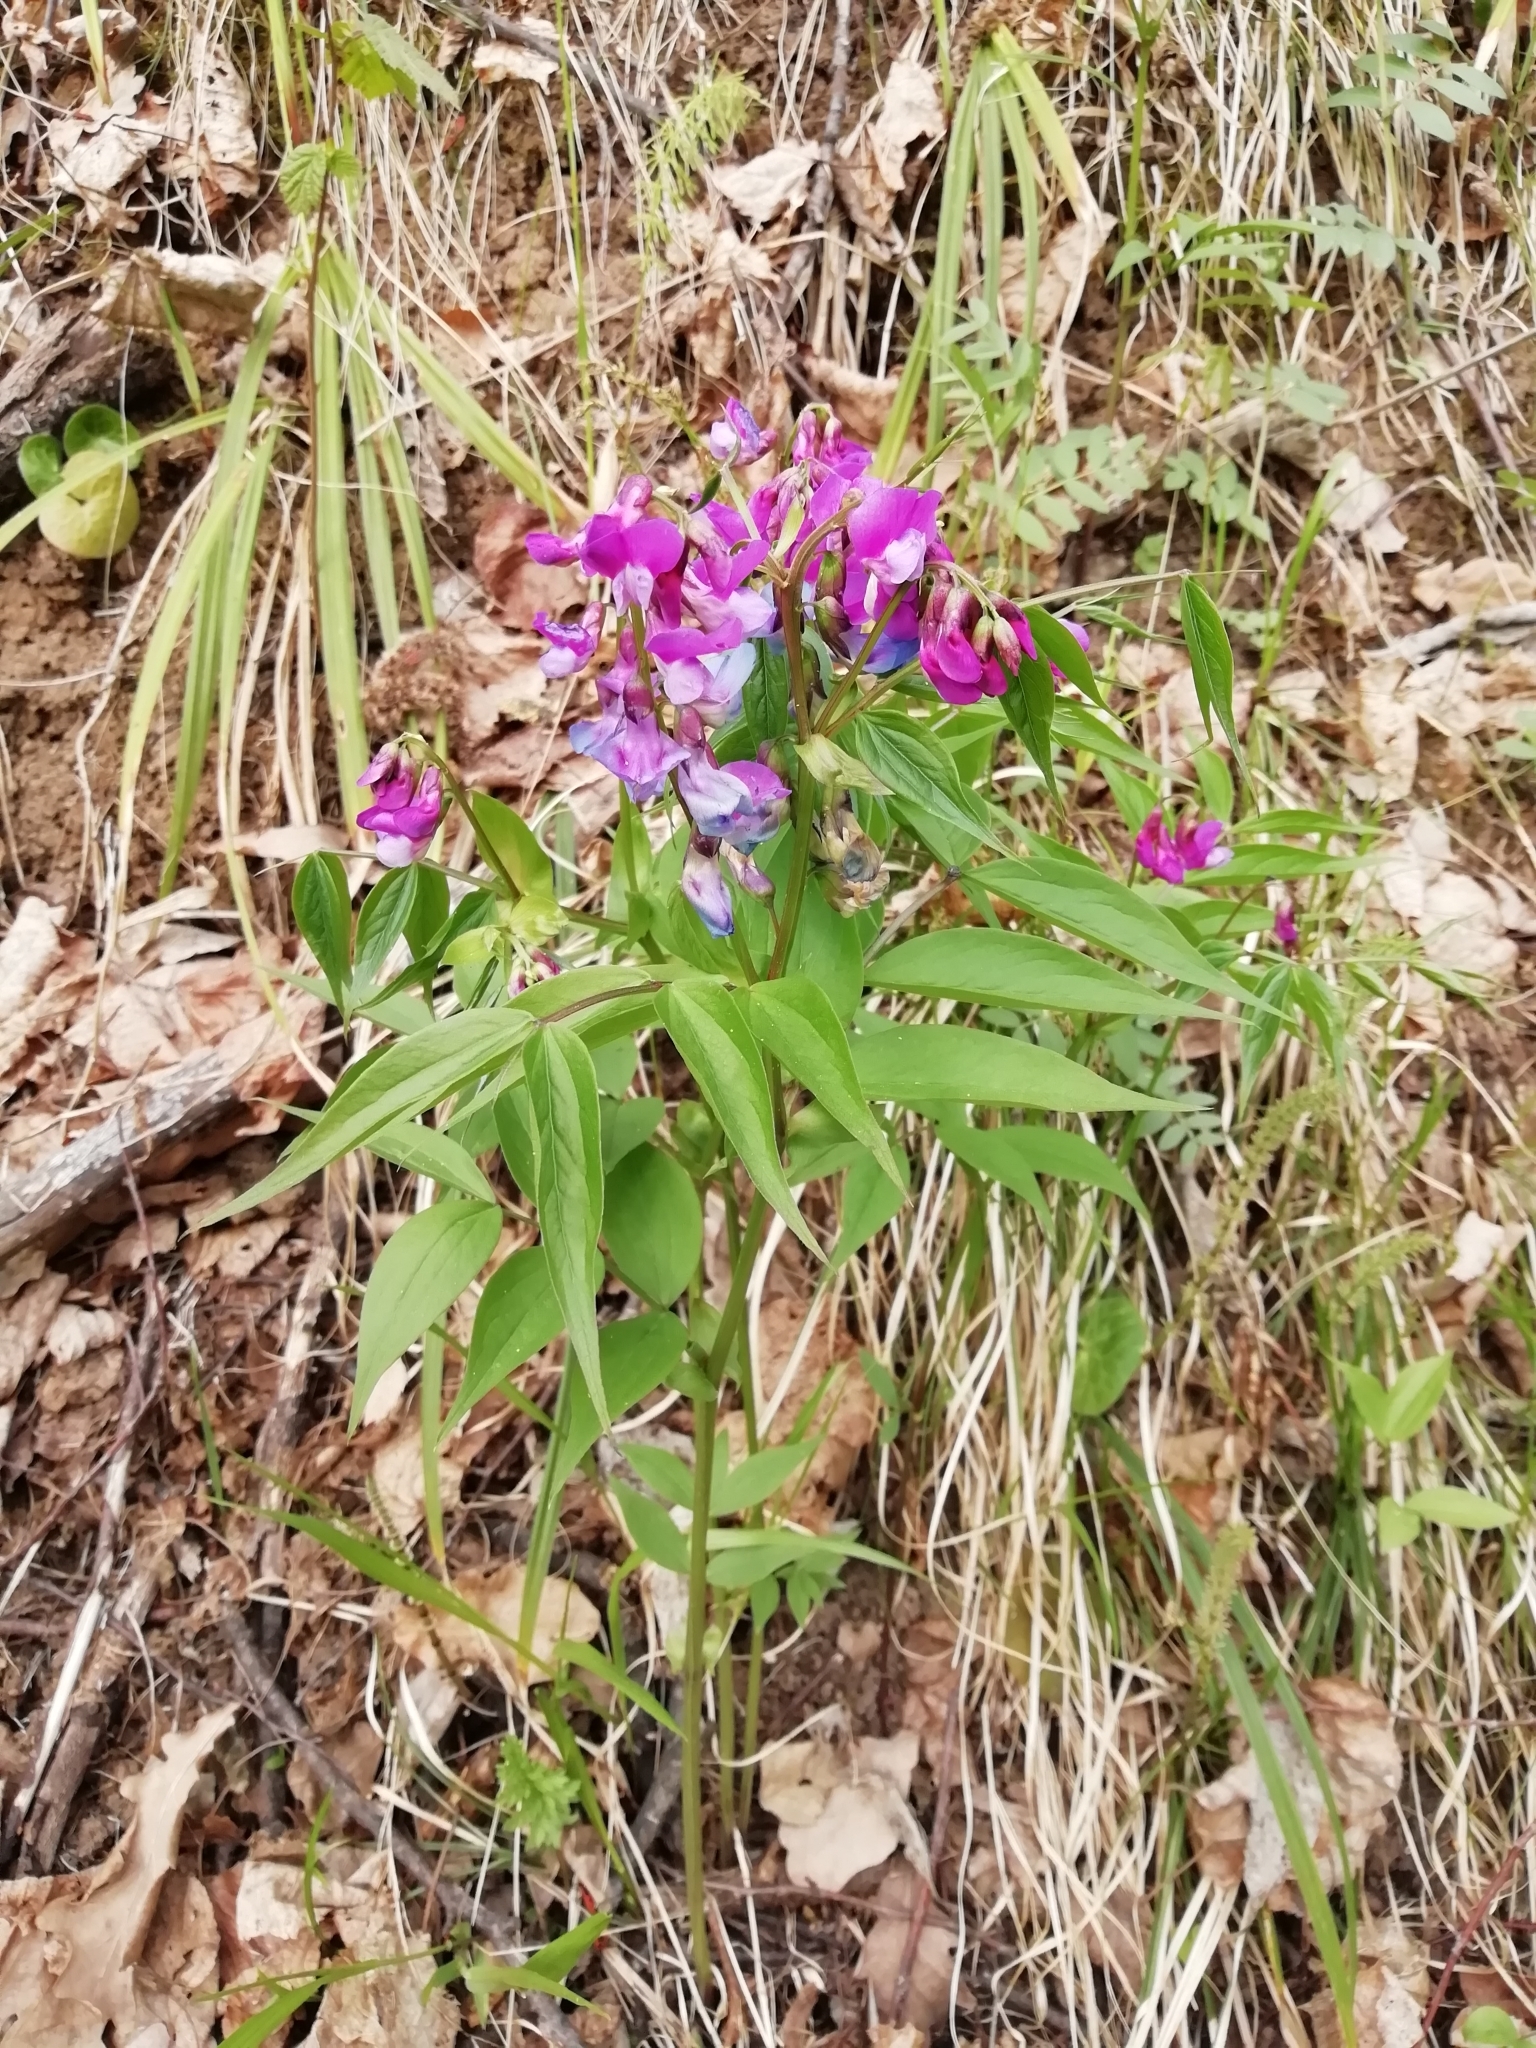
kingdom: Plantae
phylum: Tracheophyta
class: Magnoliopsida
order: Fabales
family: Fabaceae
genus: Lathyrus
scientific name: Lathyrus vernus
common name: Spring pea
